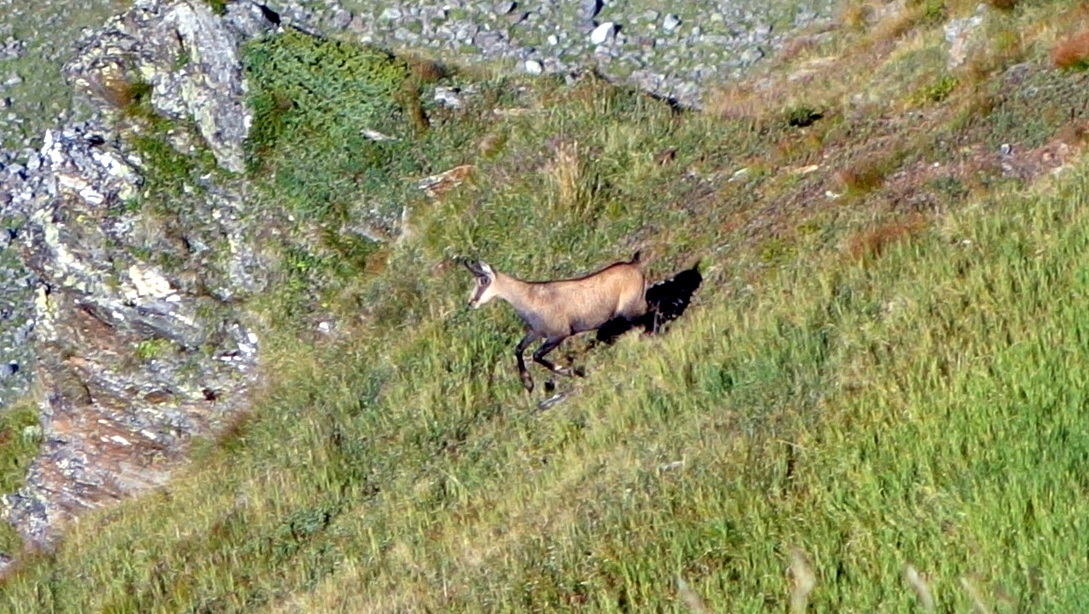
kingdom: Animalia
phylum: Chordata
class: Mammalia
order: Artiodactyla
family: Bovidae
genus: Rupicapra
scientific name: Rupicapra rupicapra
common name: Chamois
